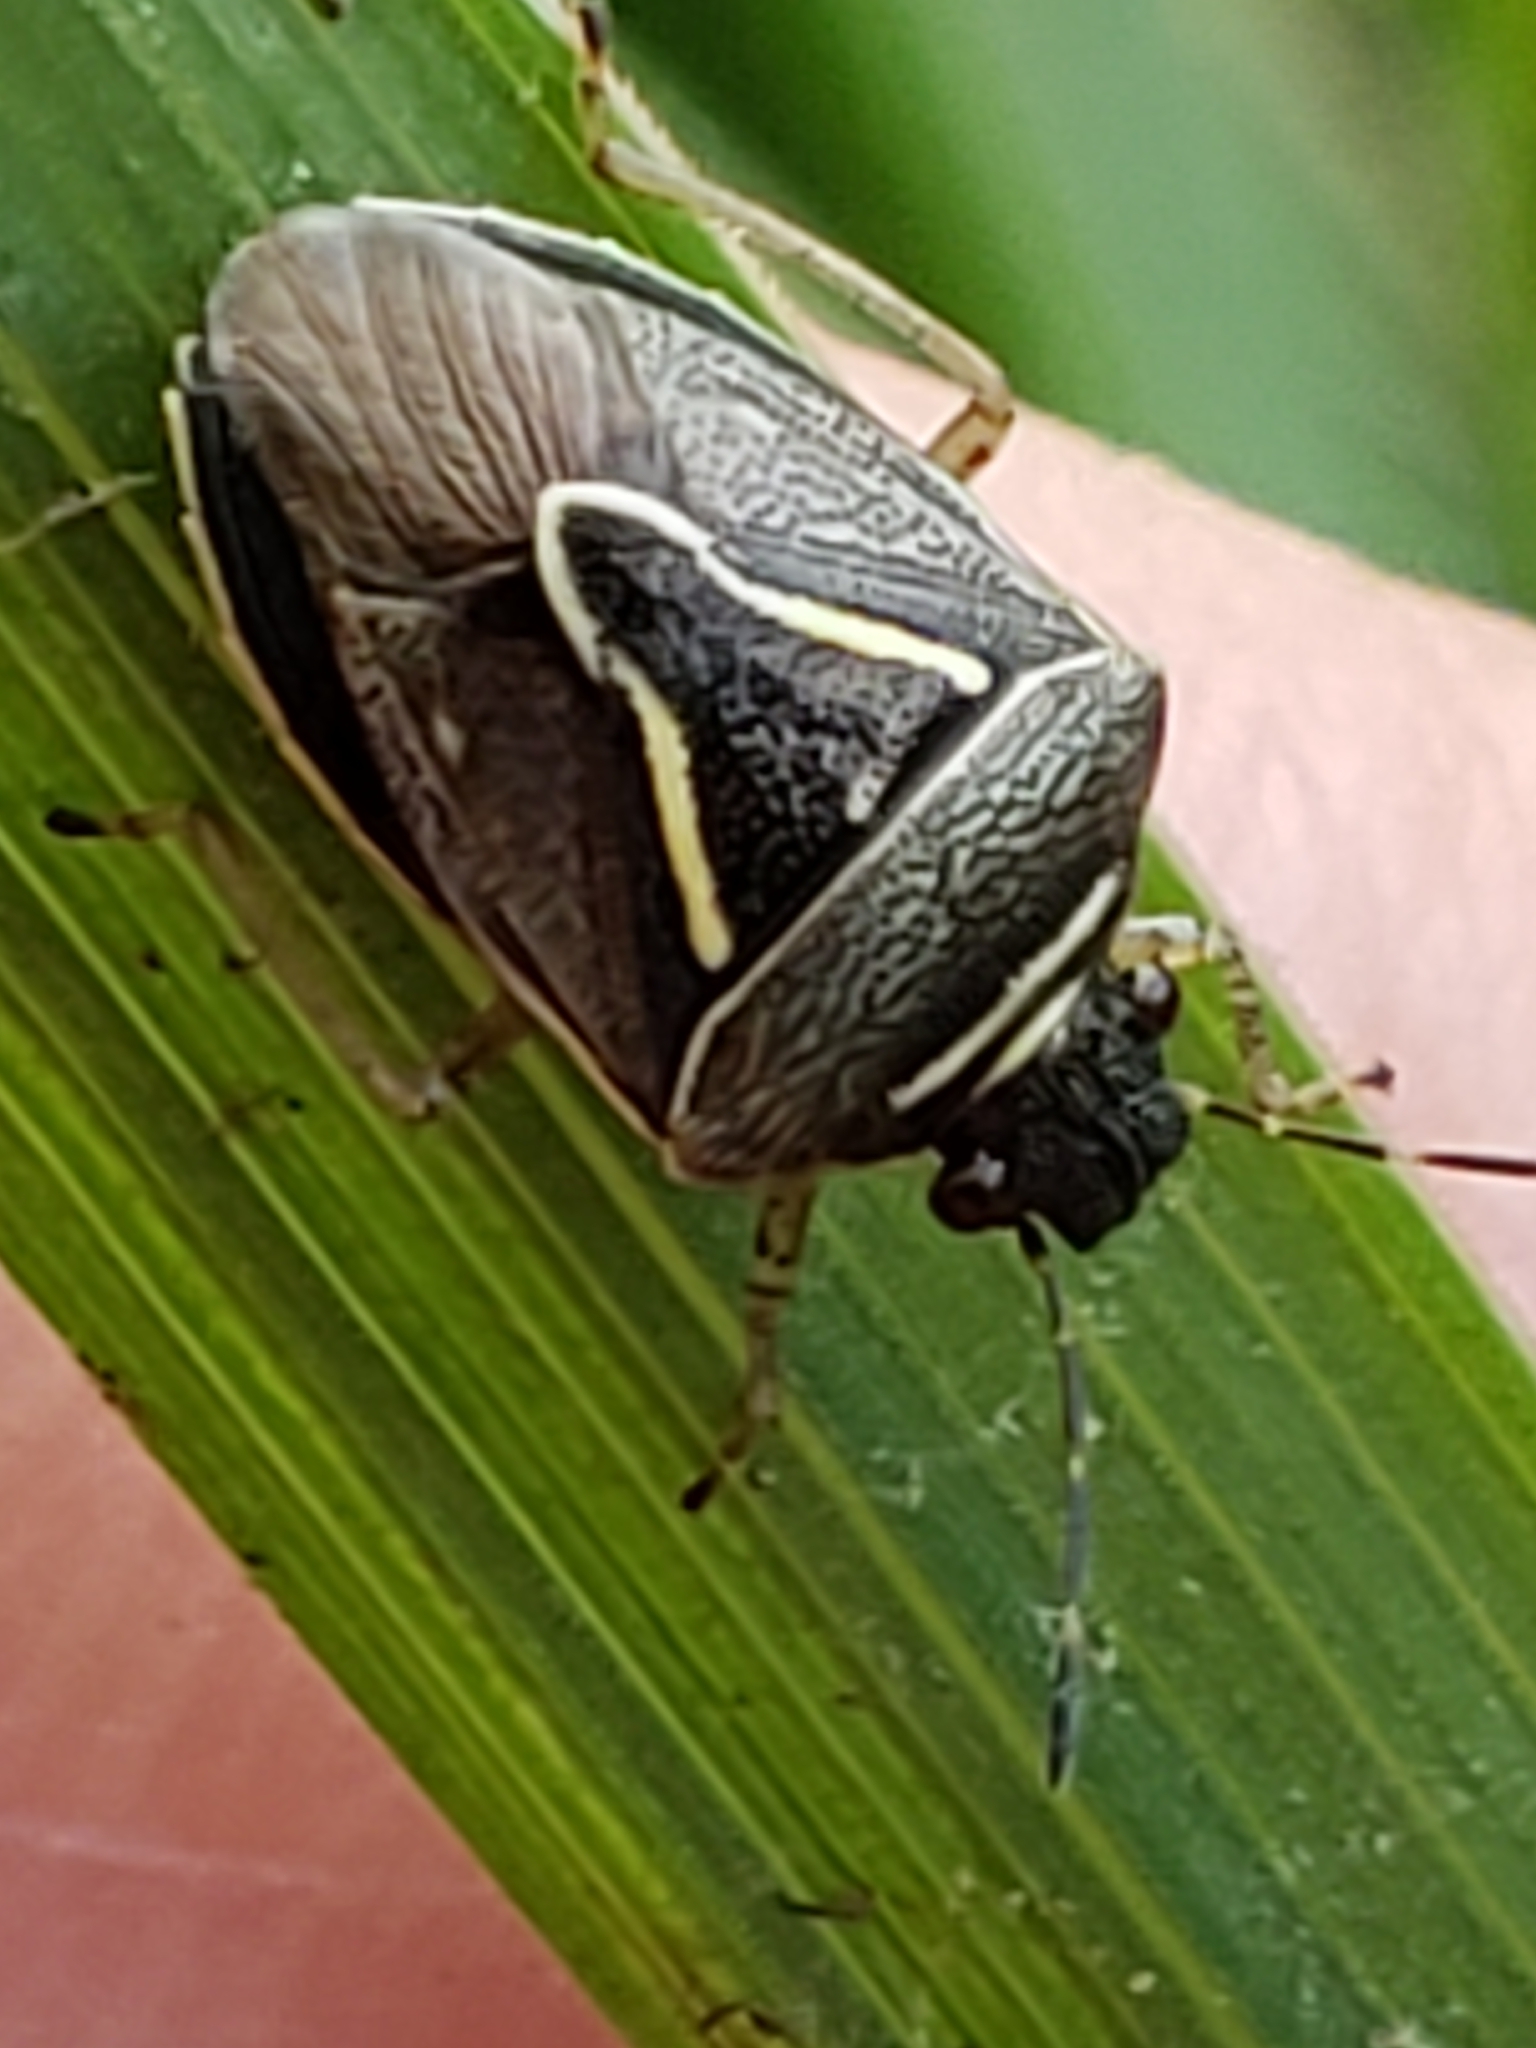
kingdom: Animalia
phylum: Arthropoda
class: Insecta
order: Hemiptera
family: Pentatomidae
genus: Mormidea
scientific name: Mormidea lugens
